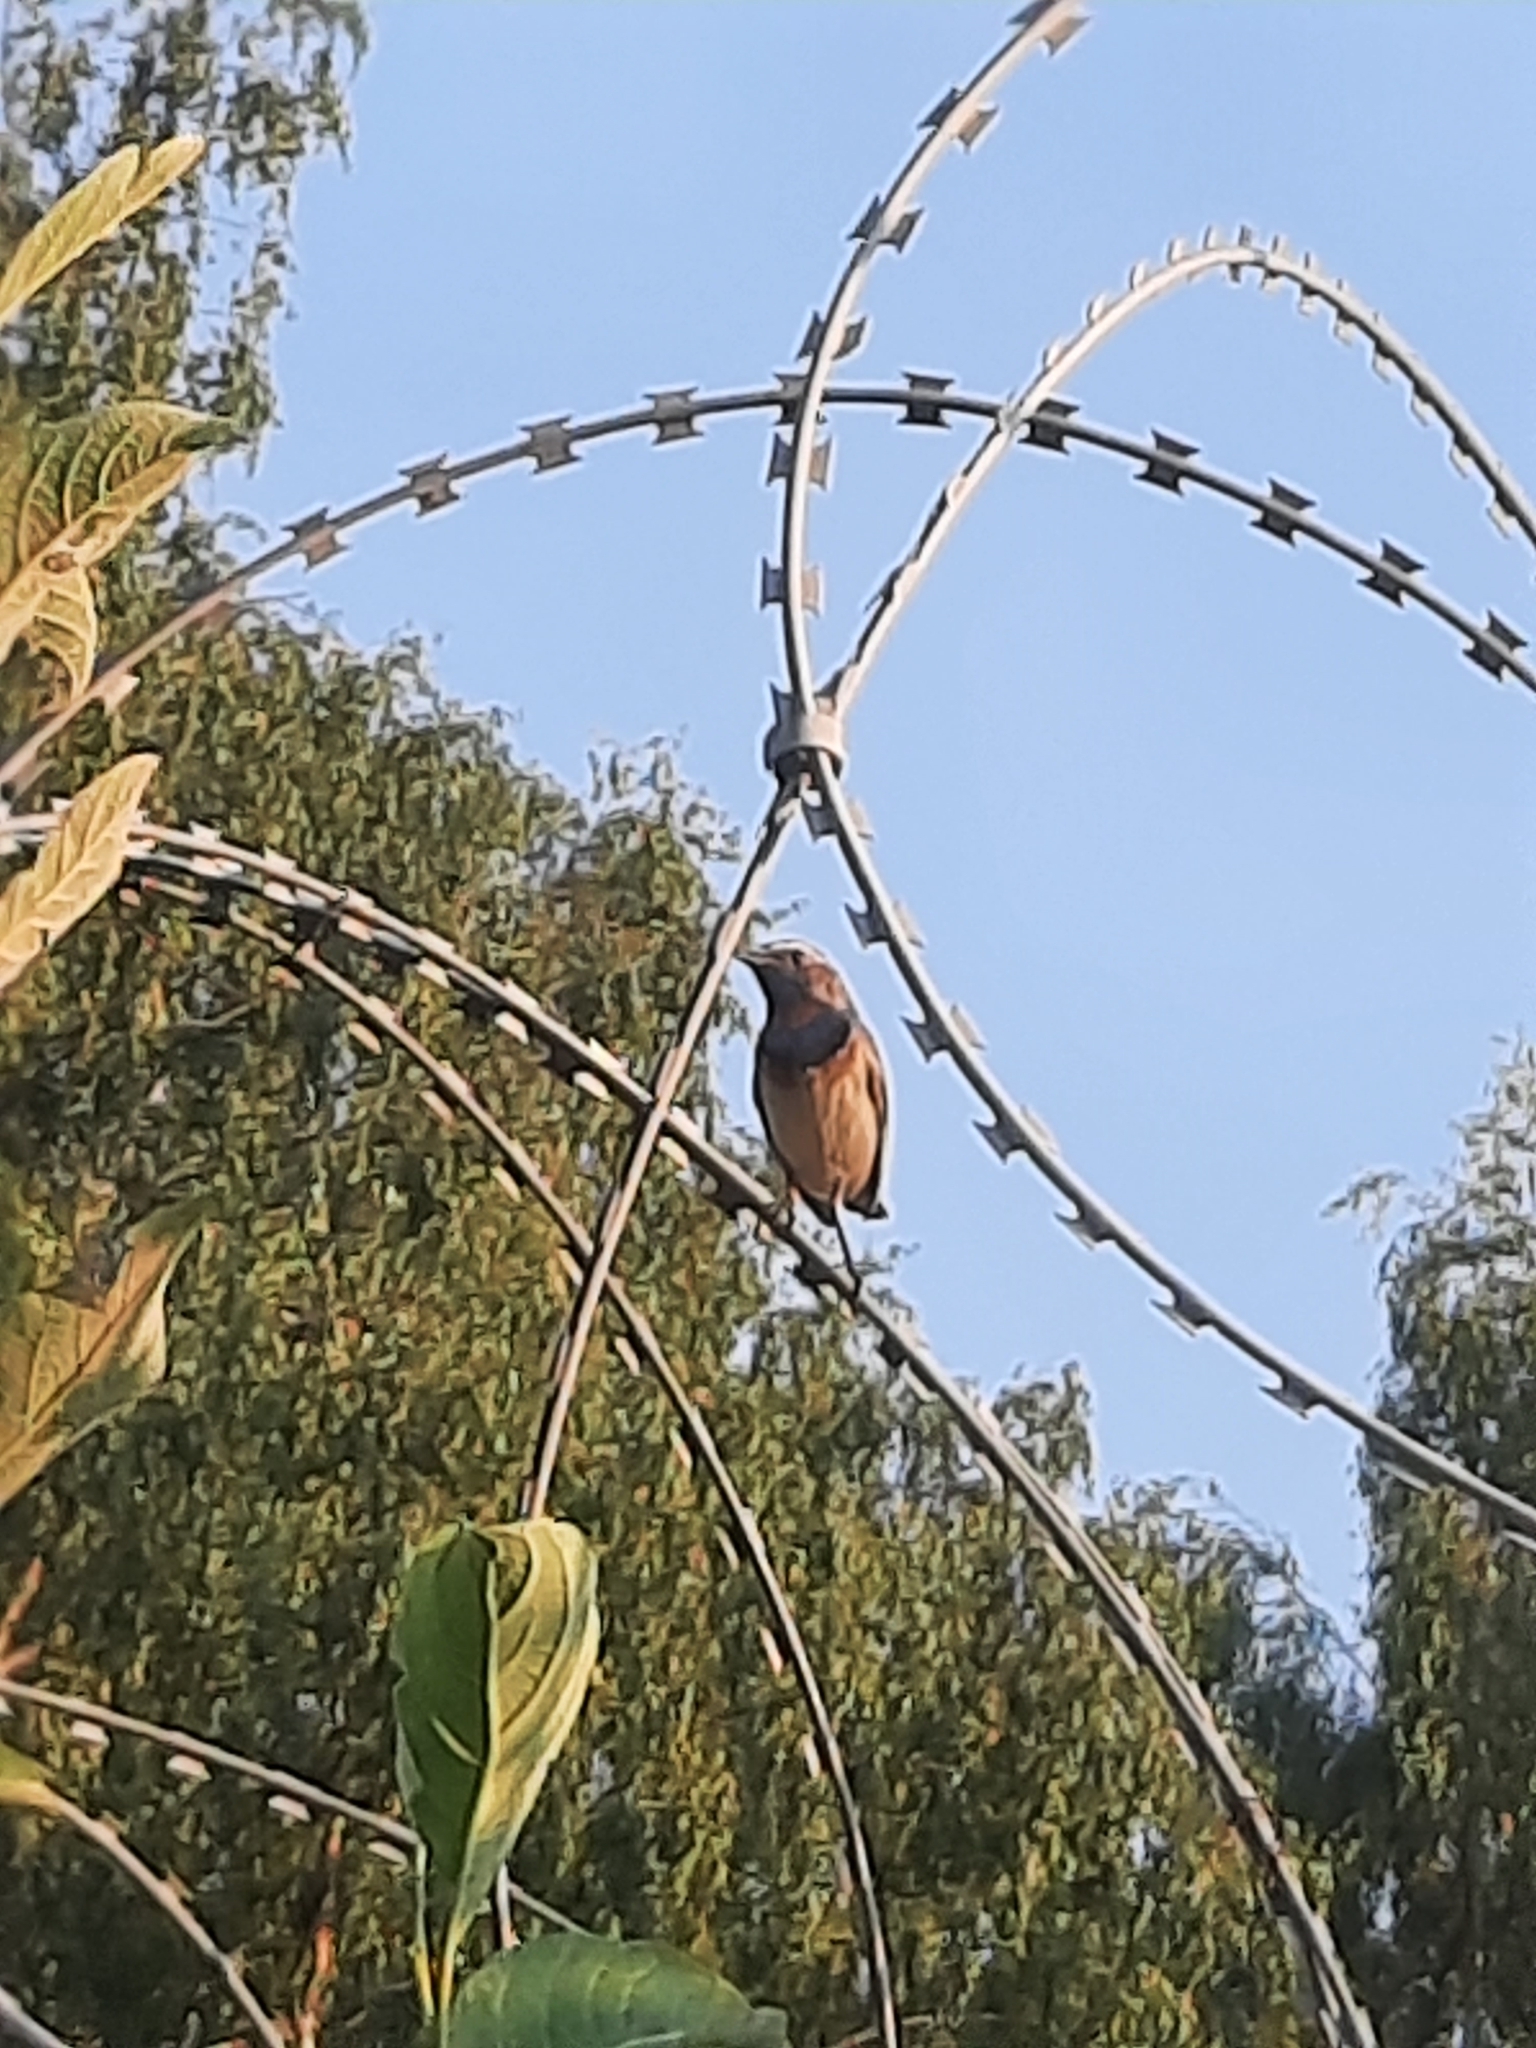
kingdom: Animalia
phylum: Chordata
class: Aves
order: Passeriformes
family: Muscicapidae
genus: Luscinia
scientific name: Luscinia svecica
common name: Bluethroat
